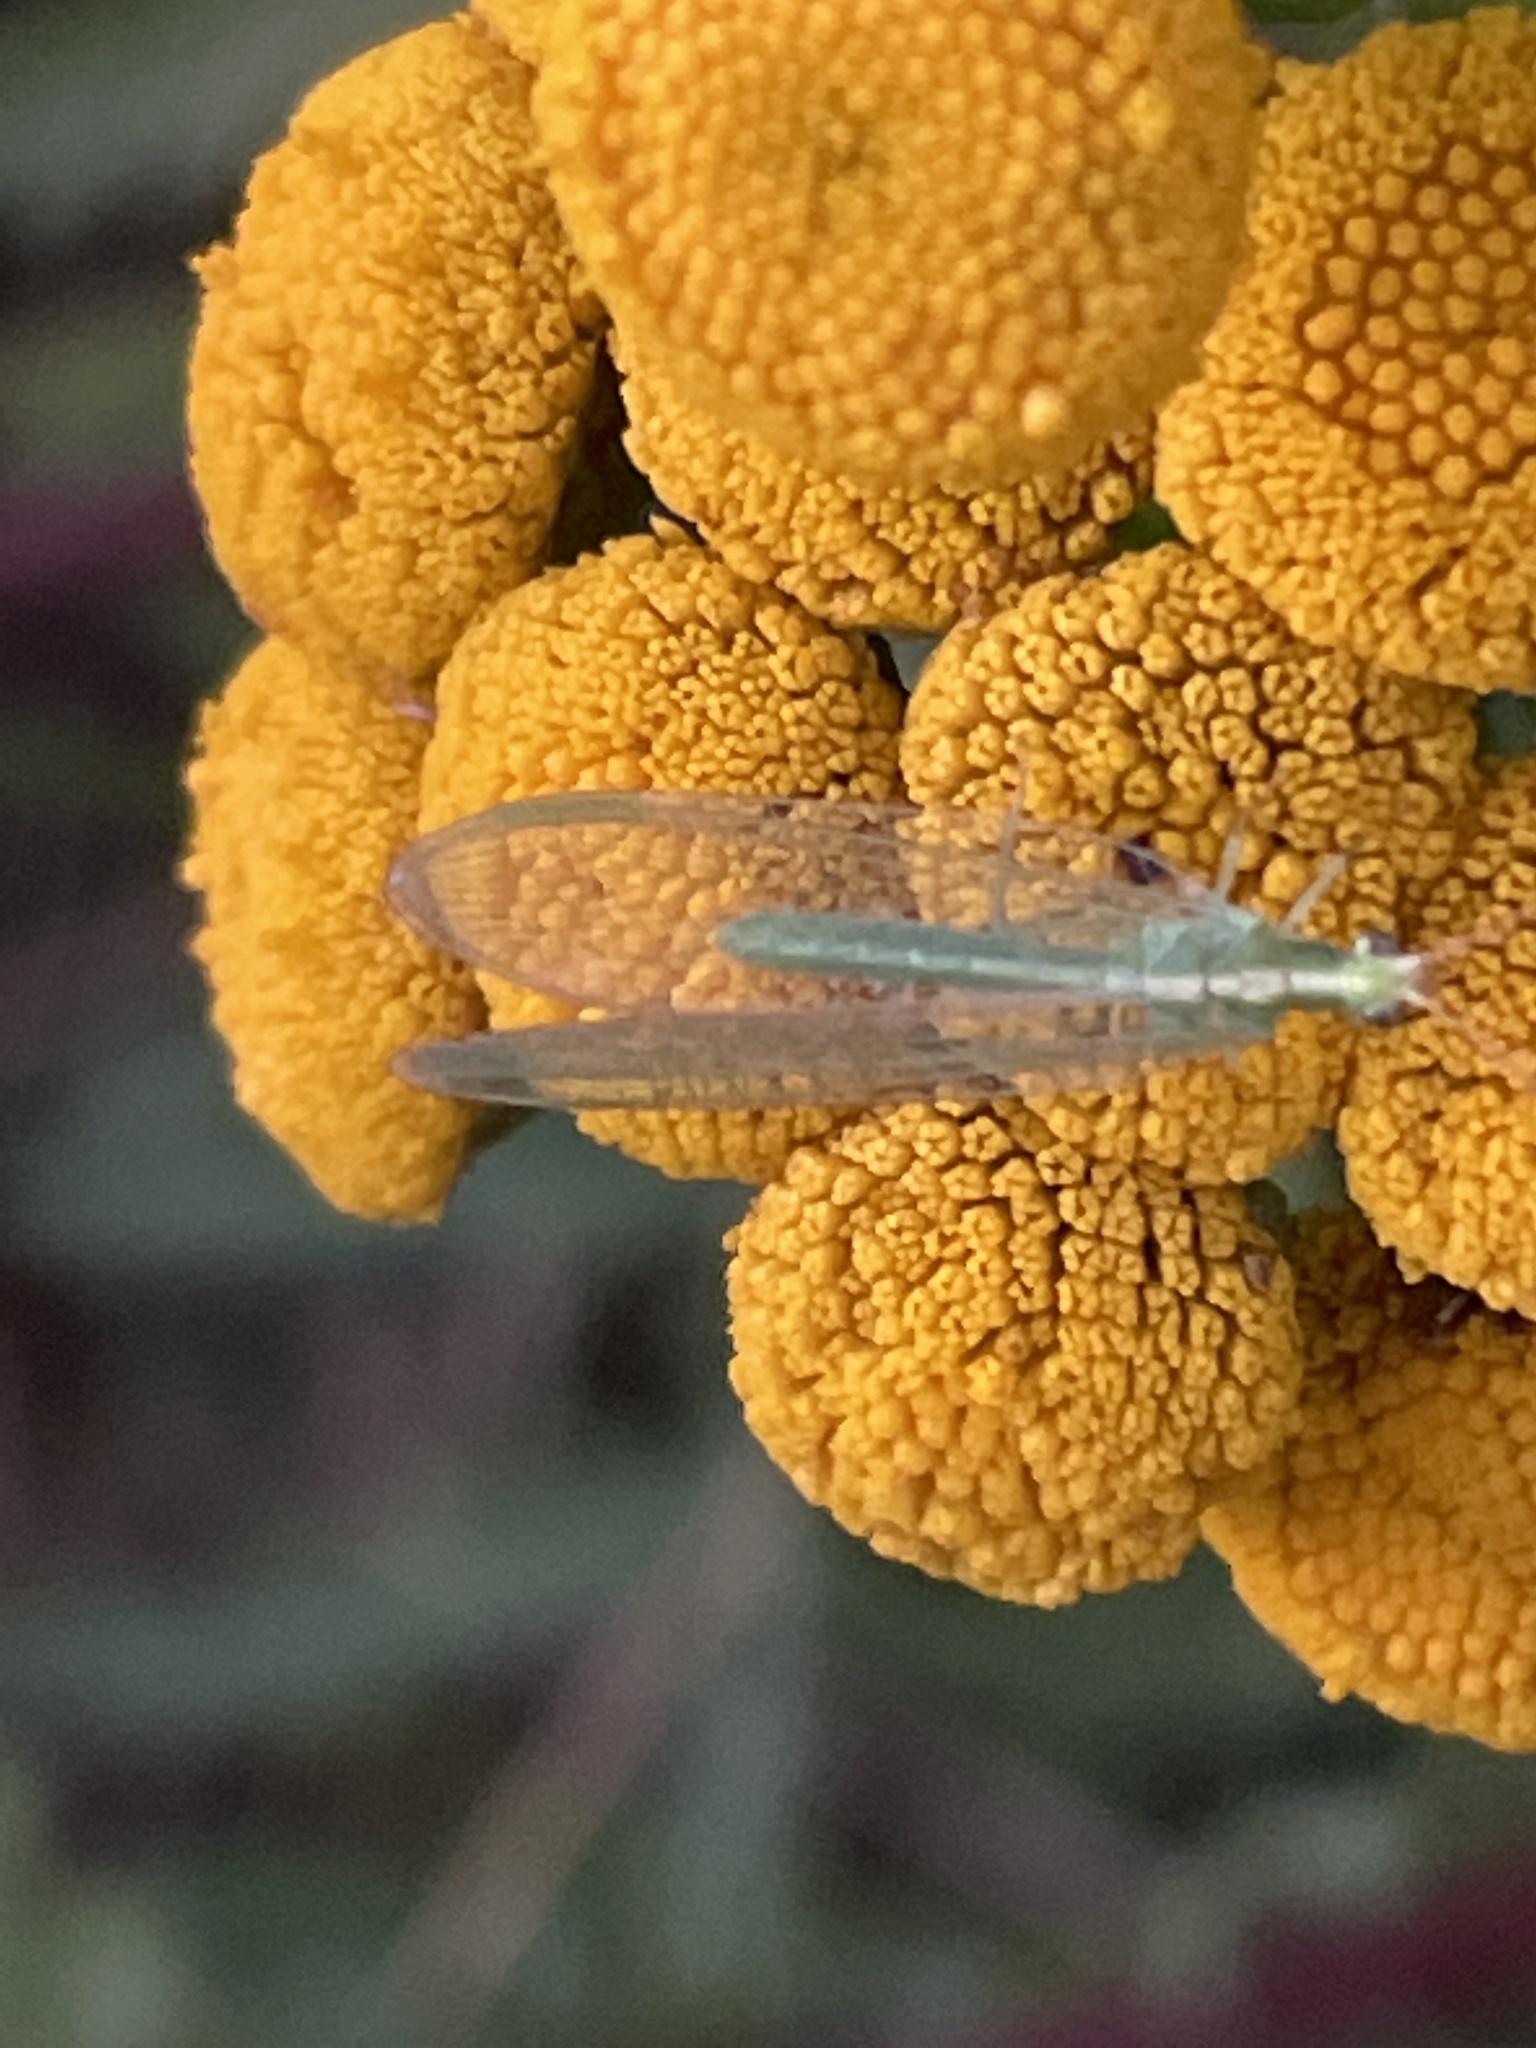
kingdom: Animalia
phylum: Arthropoda
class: Insecta
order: Neuroptera
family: Chrysopidae
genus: Chrysoperla
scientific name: Chrysoperla
